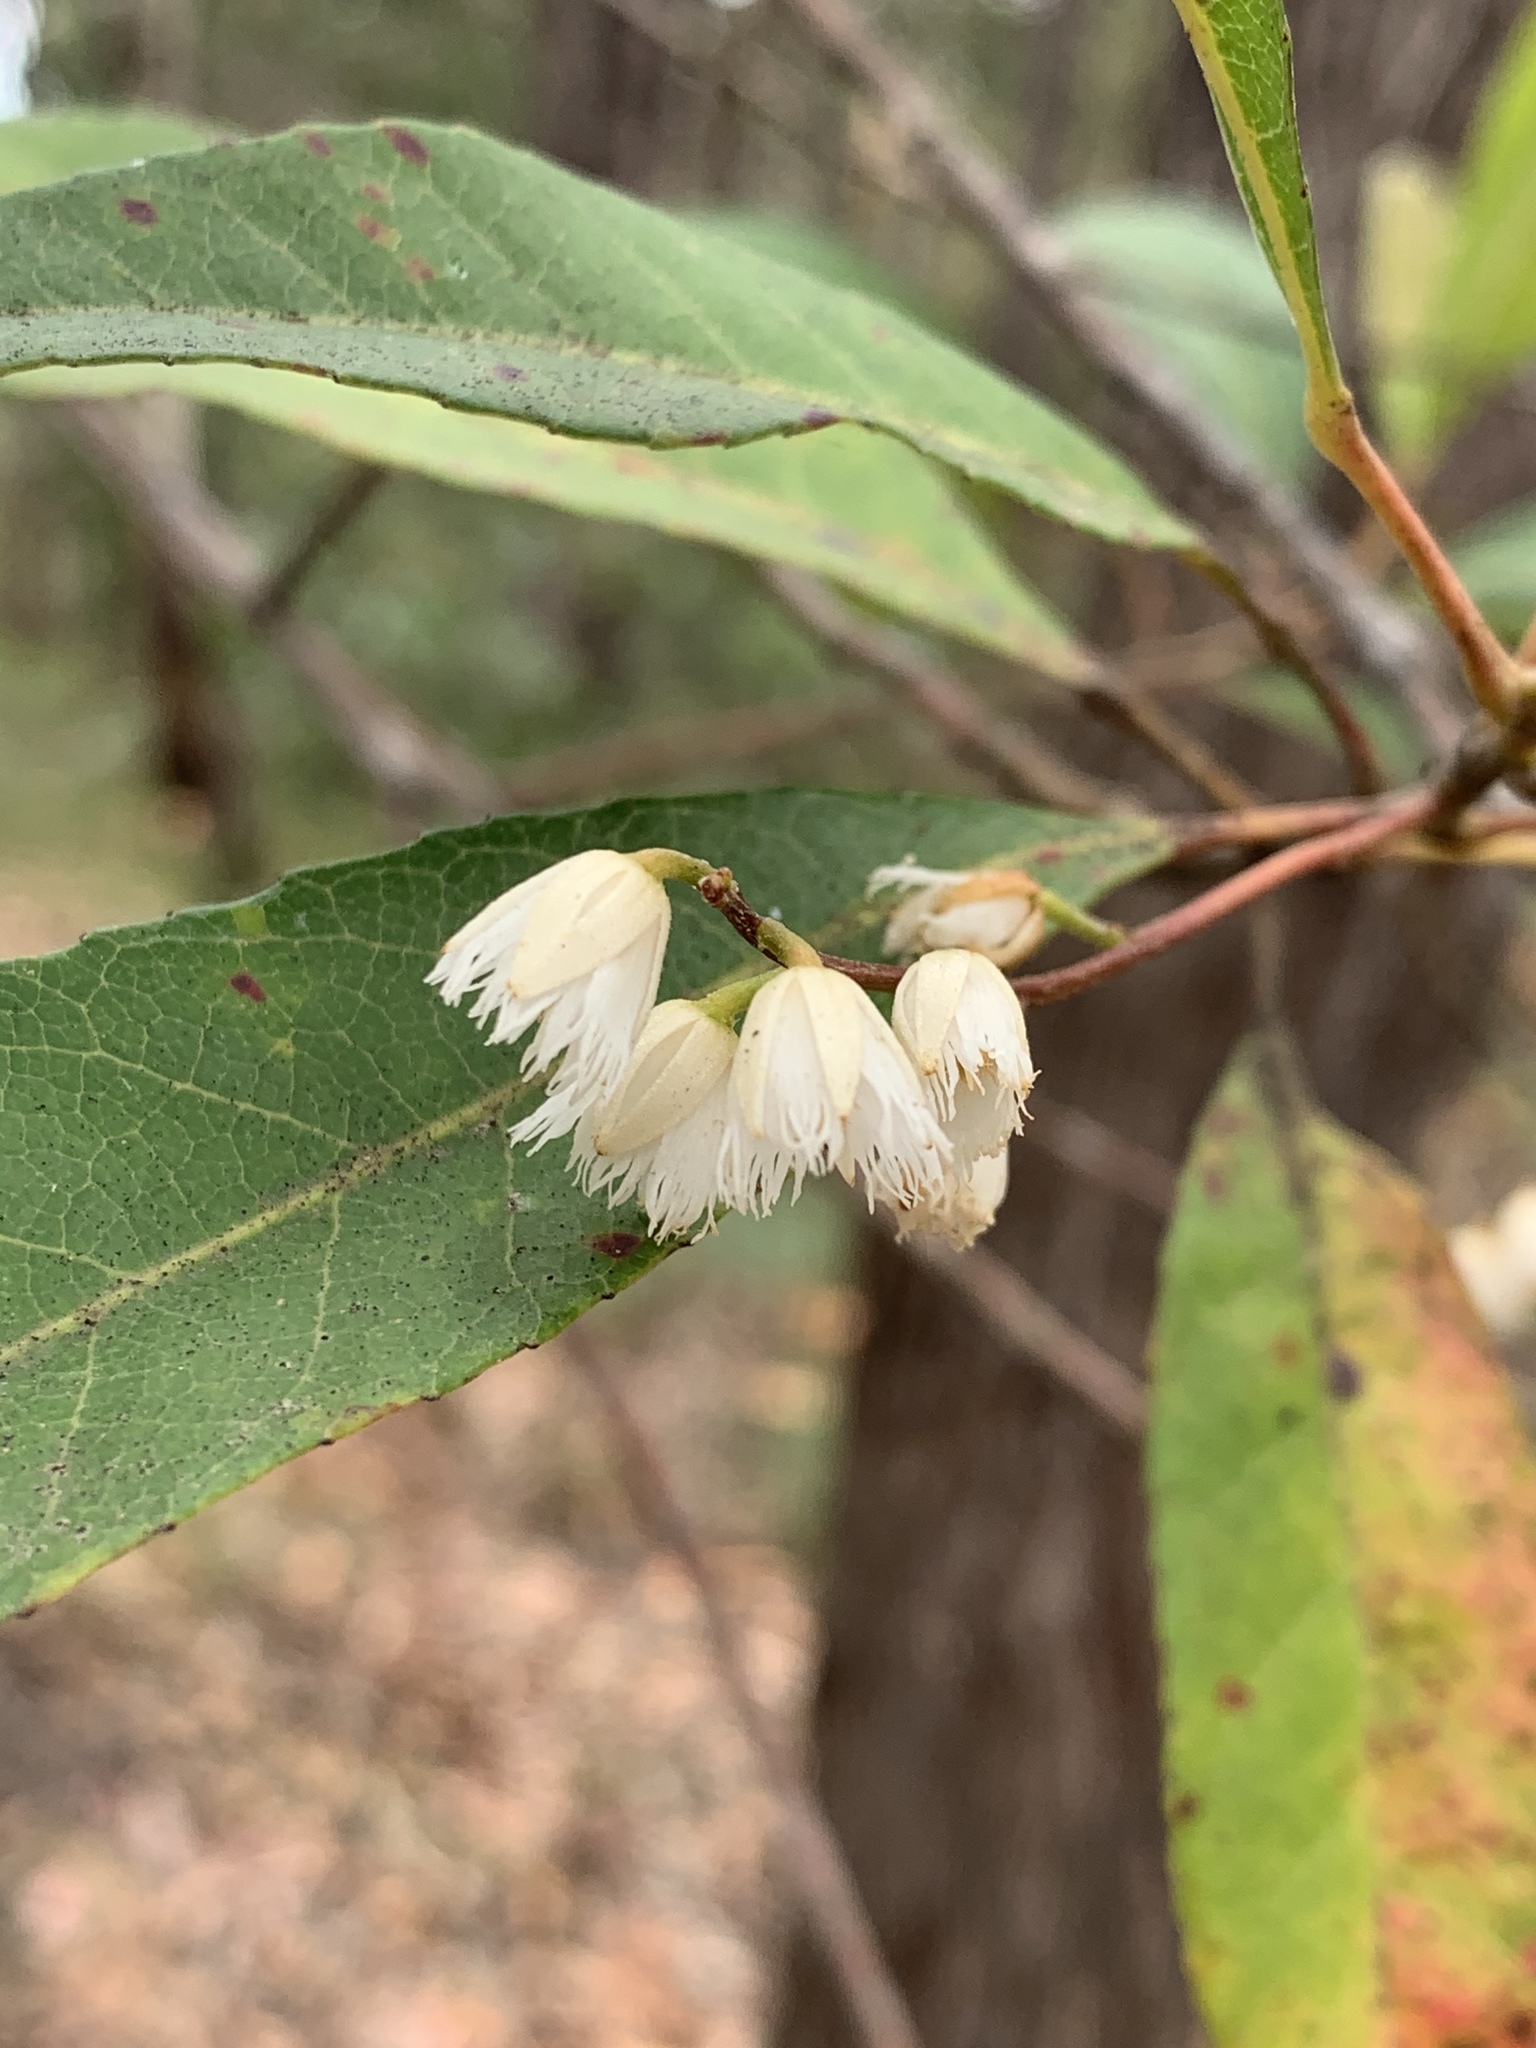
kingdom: Plantae
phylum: Tracheophyta
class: Magnoliopsida
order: Oxalidales
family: Elaeocarpaceae
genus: Elaeocarpus
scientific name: Elaeocarpus reticulatus
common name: Ash quandong
